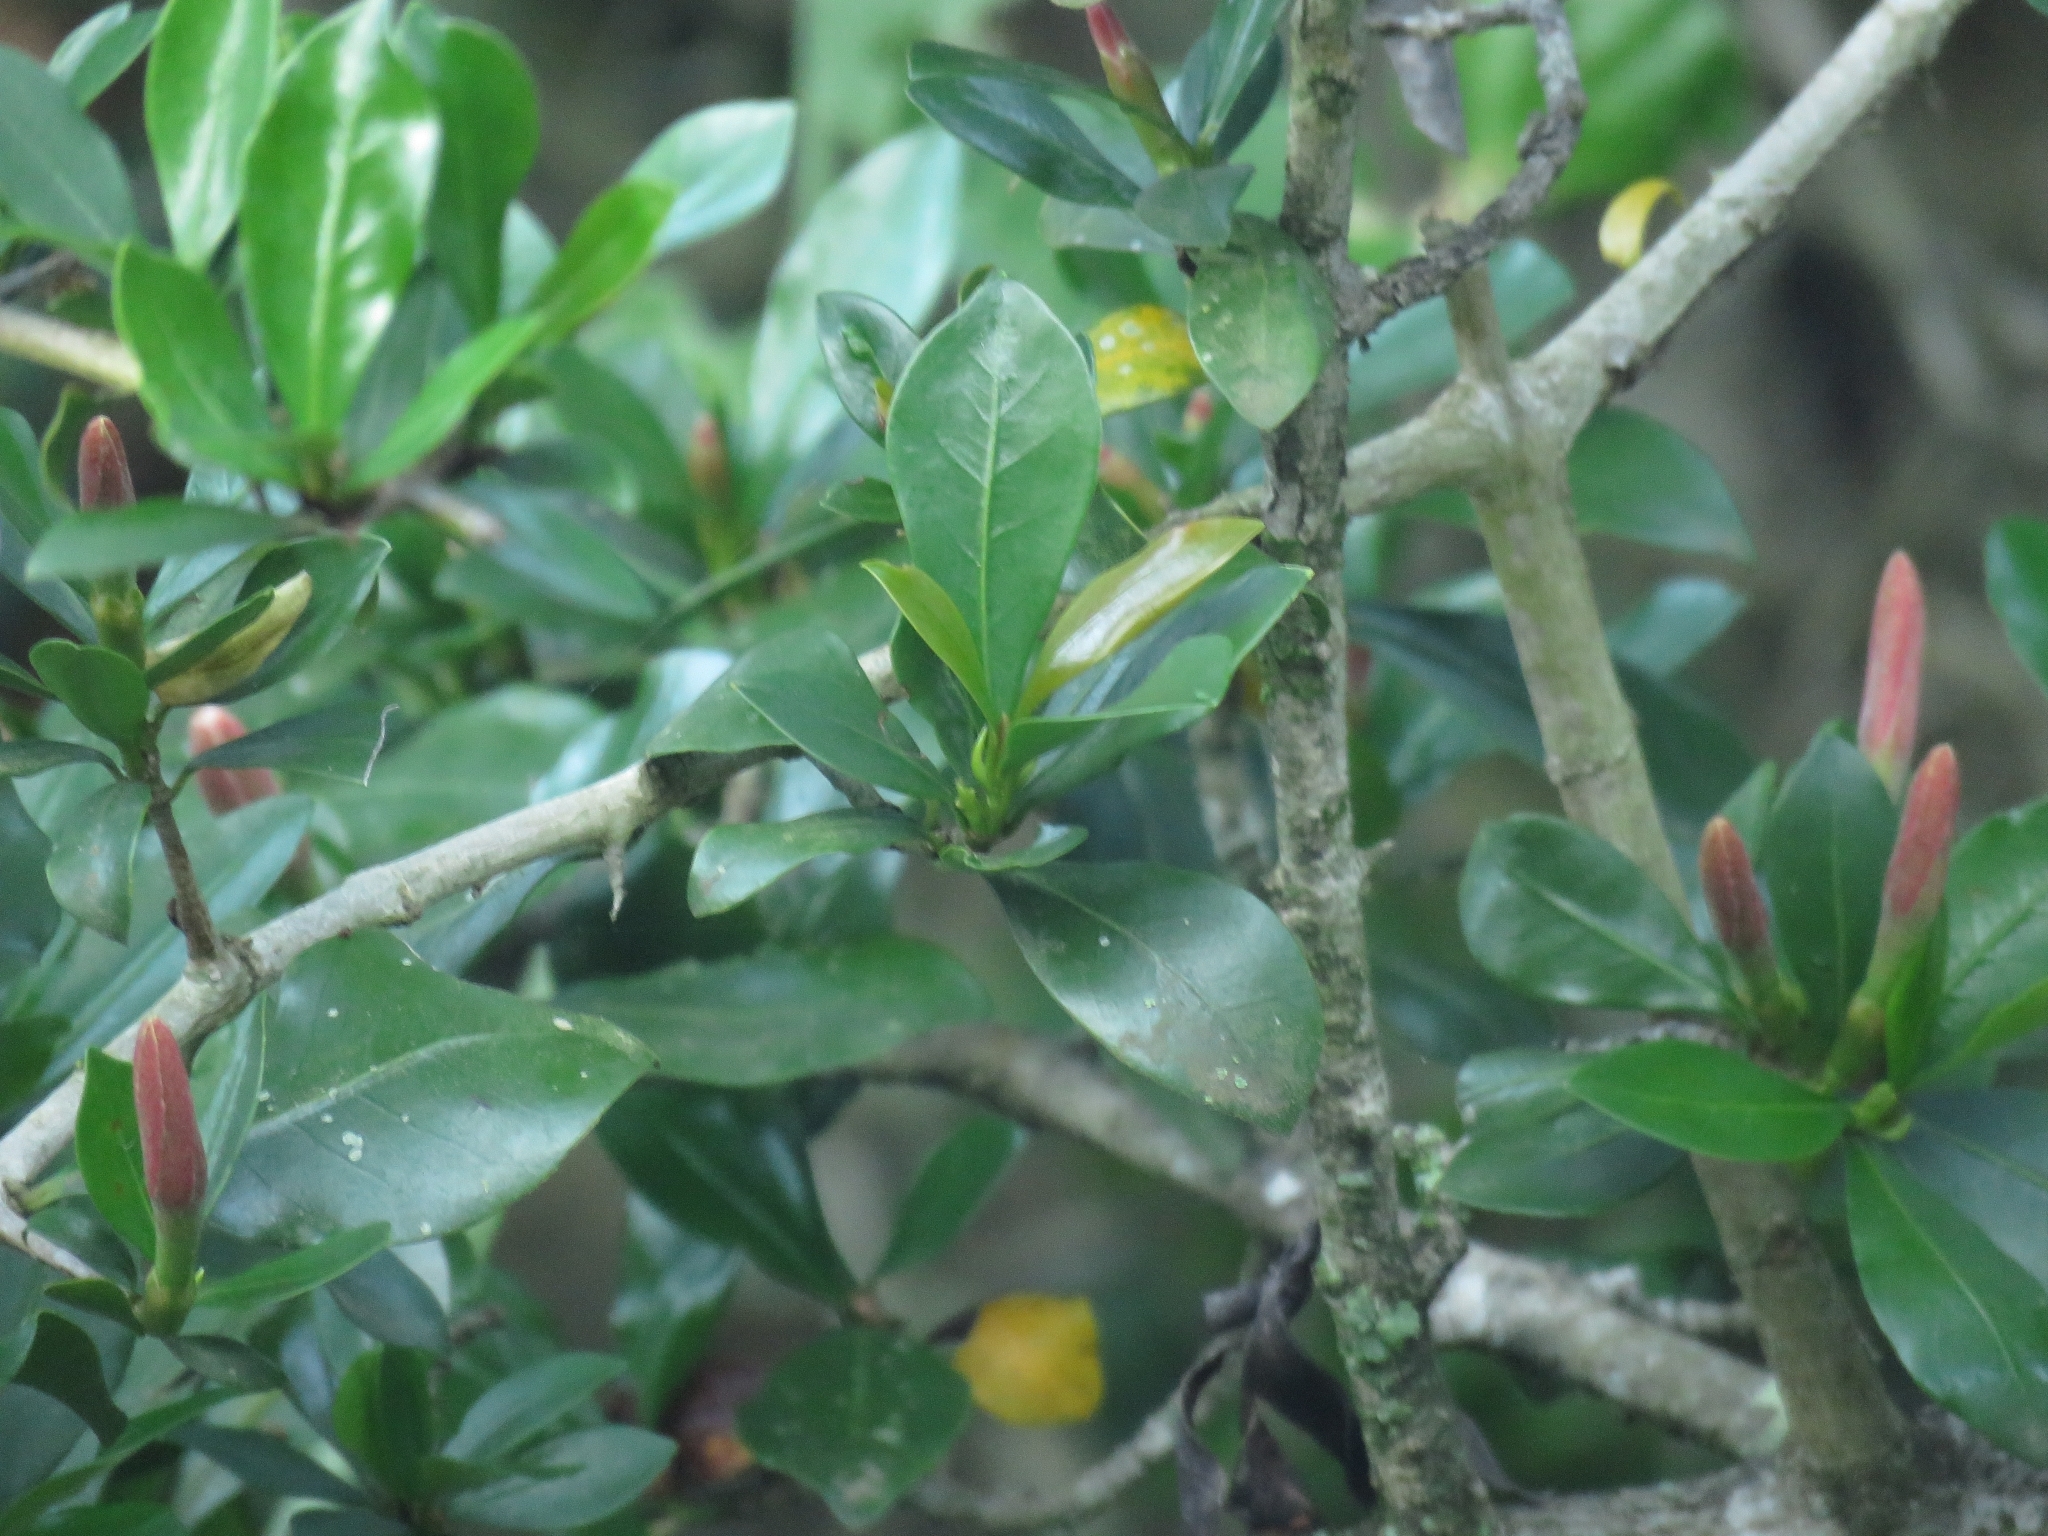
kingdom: Plantae
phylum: Tracheophyta
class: Magnoliopsida
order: Gentianales
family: Rubiaceae
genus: Hyperacanthus
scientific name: Hyperacanthus amoenus
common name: Spiny gardenia
